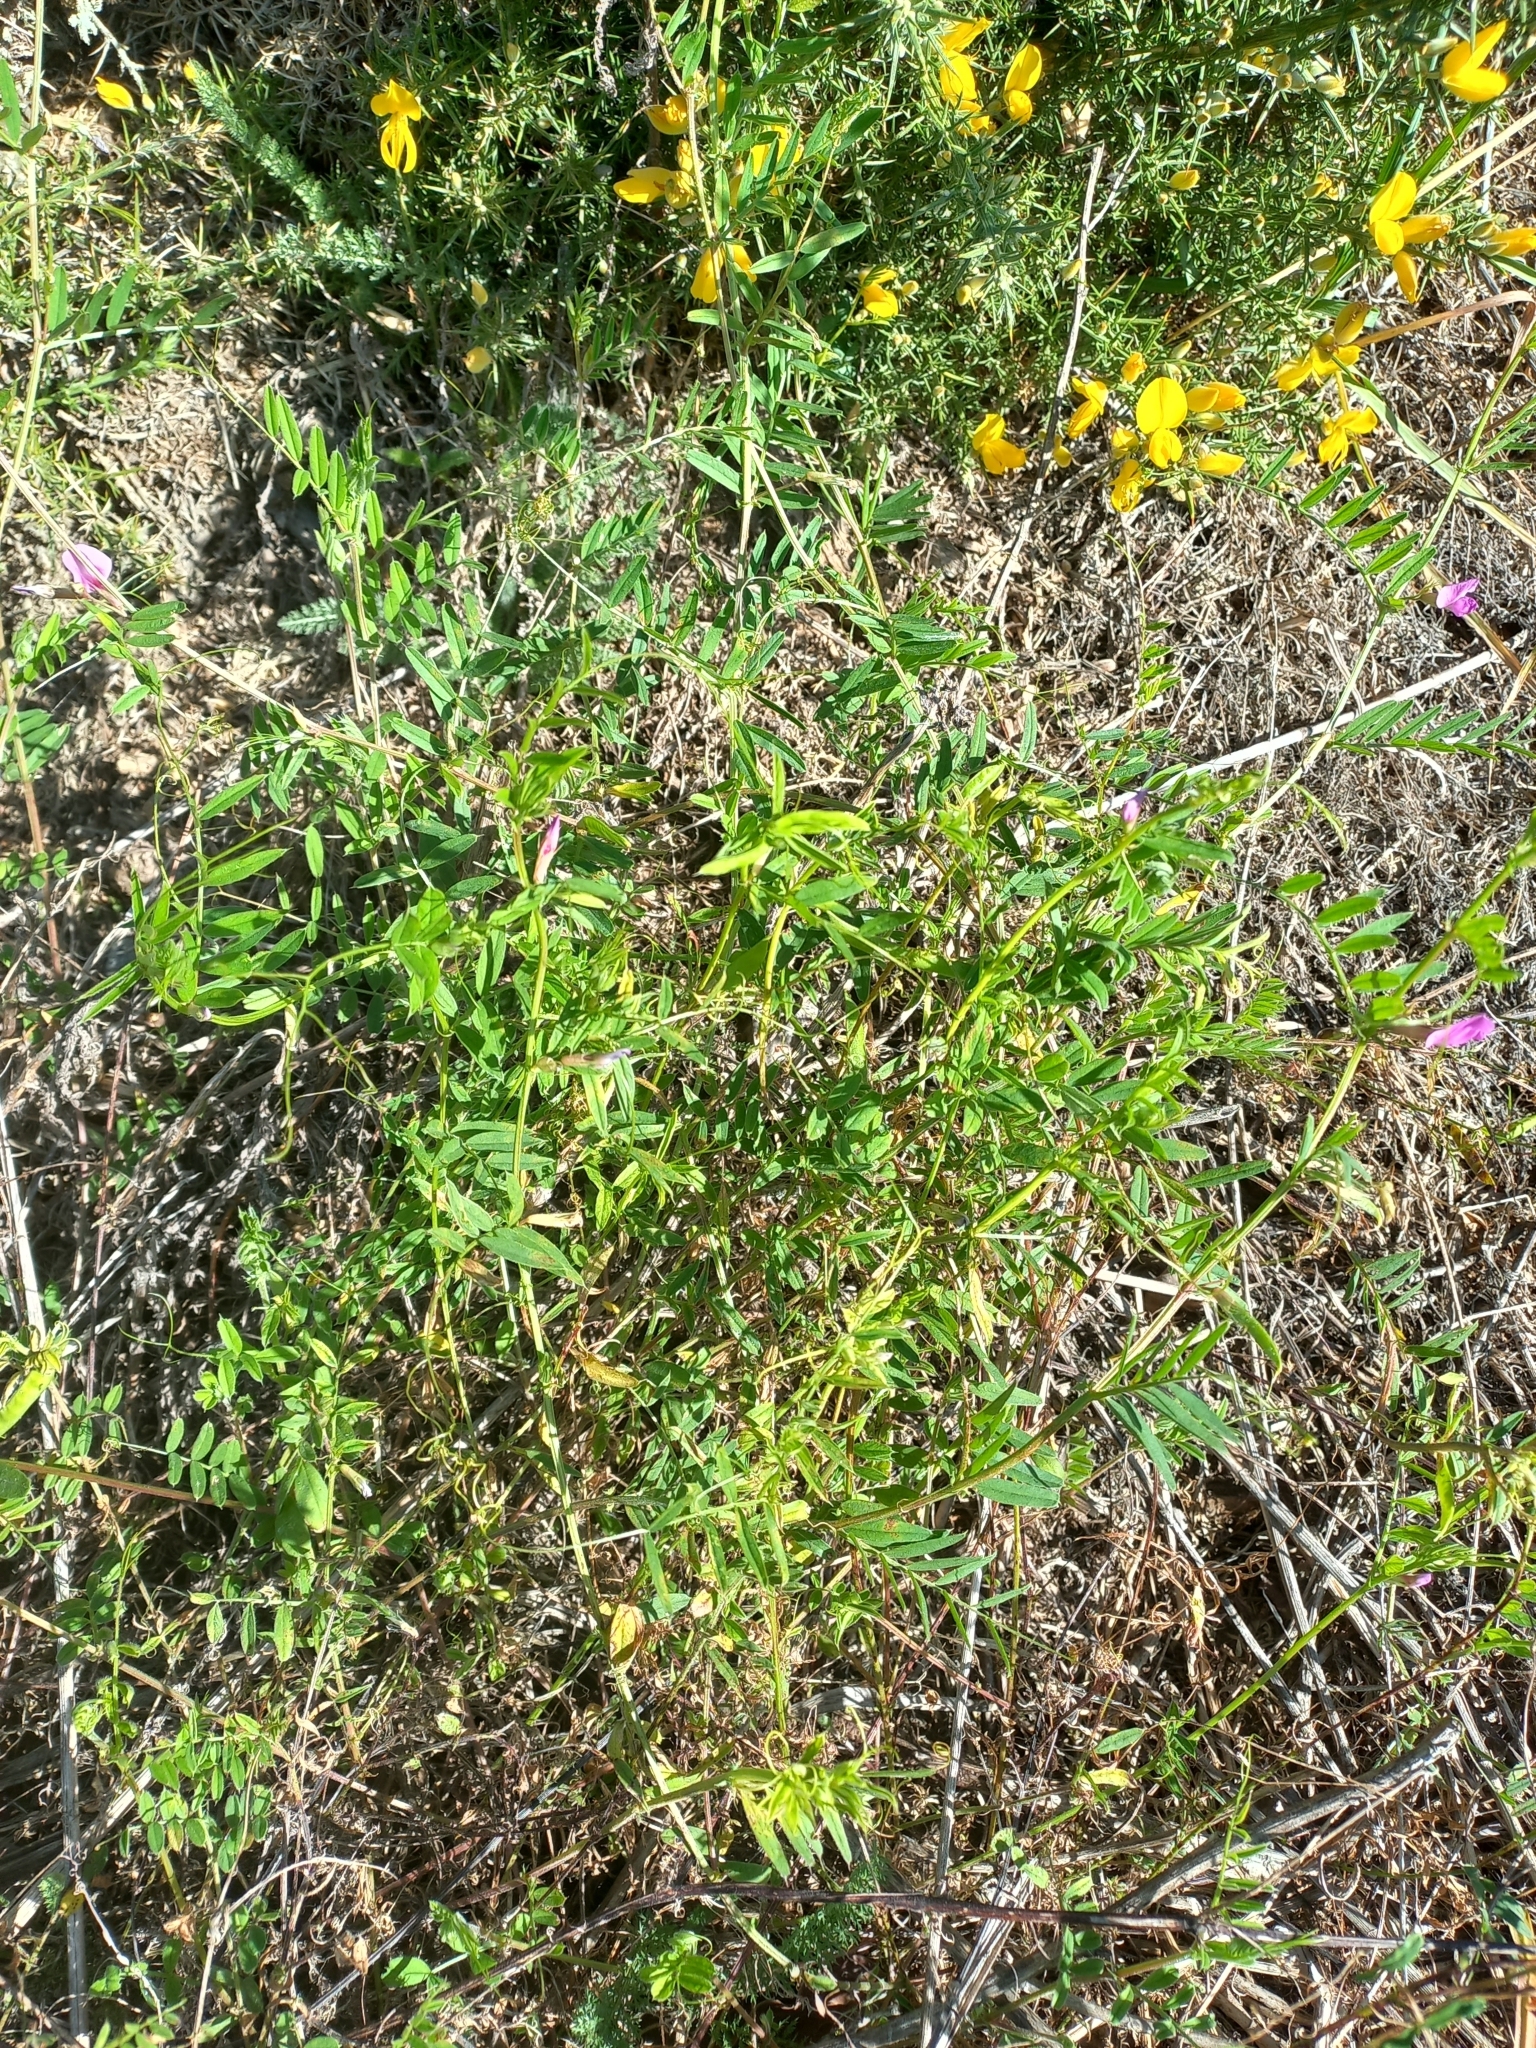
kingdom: Plantae
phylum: Tracheophyta
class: Magnoliopsida
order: Fabales
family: Fabaceae
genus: Vicia
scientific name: Vicia sativa
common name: Garden vetch
